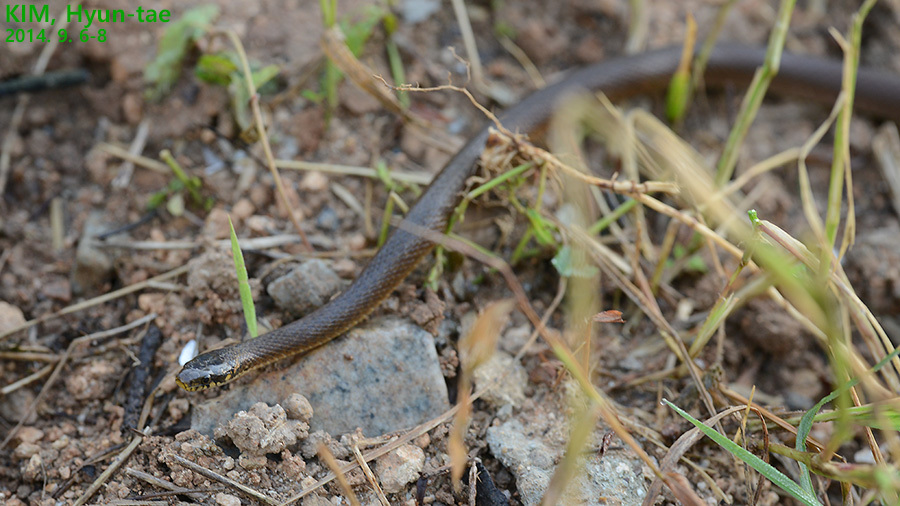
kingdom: Animalia
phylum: Chordata
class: Squamata
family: Colubridae
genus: Hebius
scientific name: Hebius vibakari
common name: Japanese keelback
